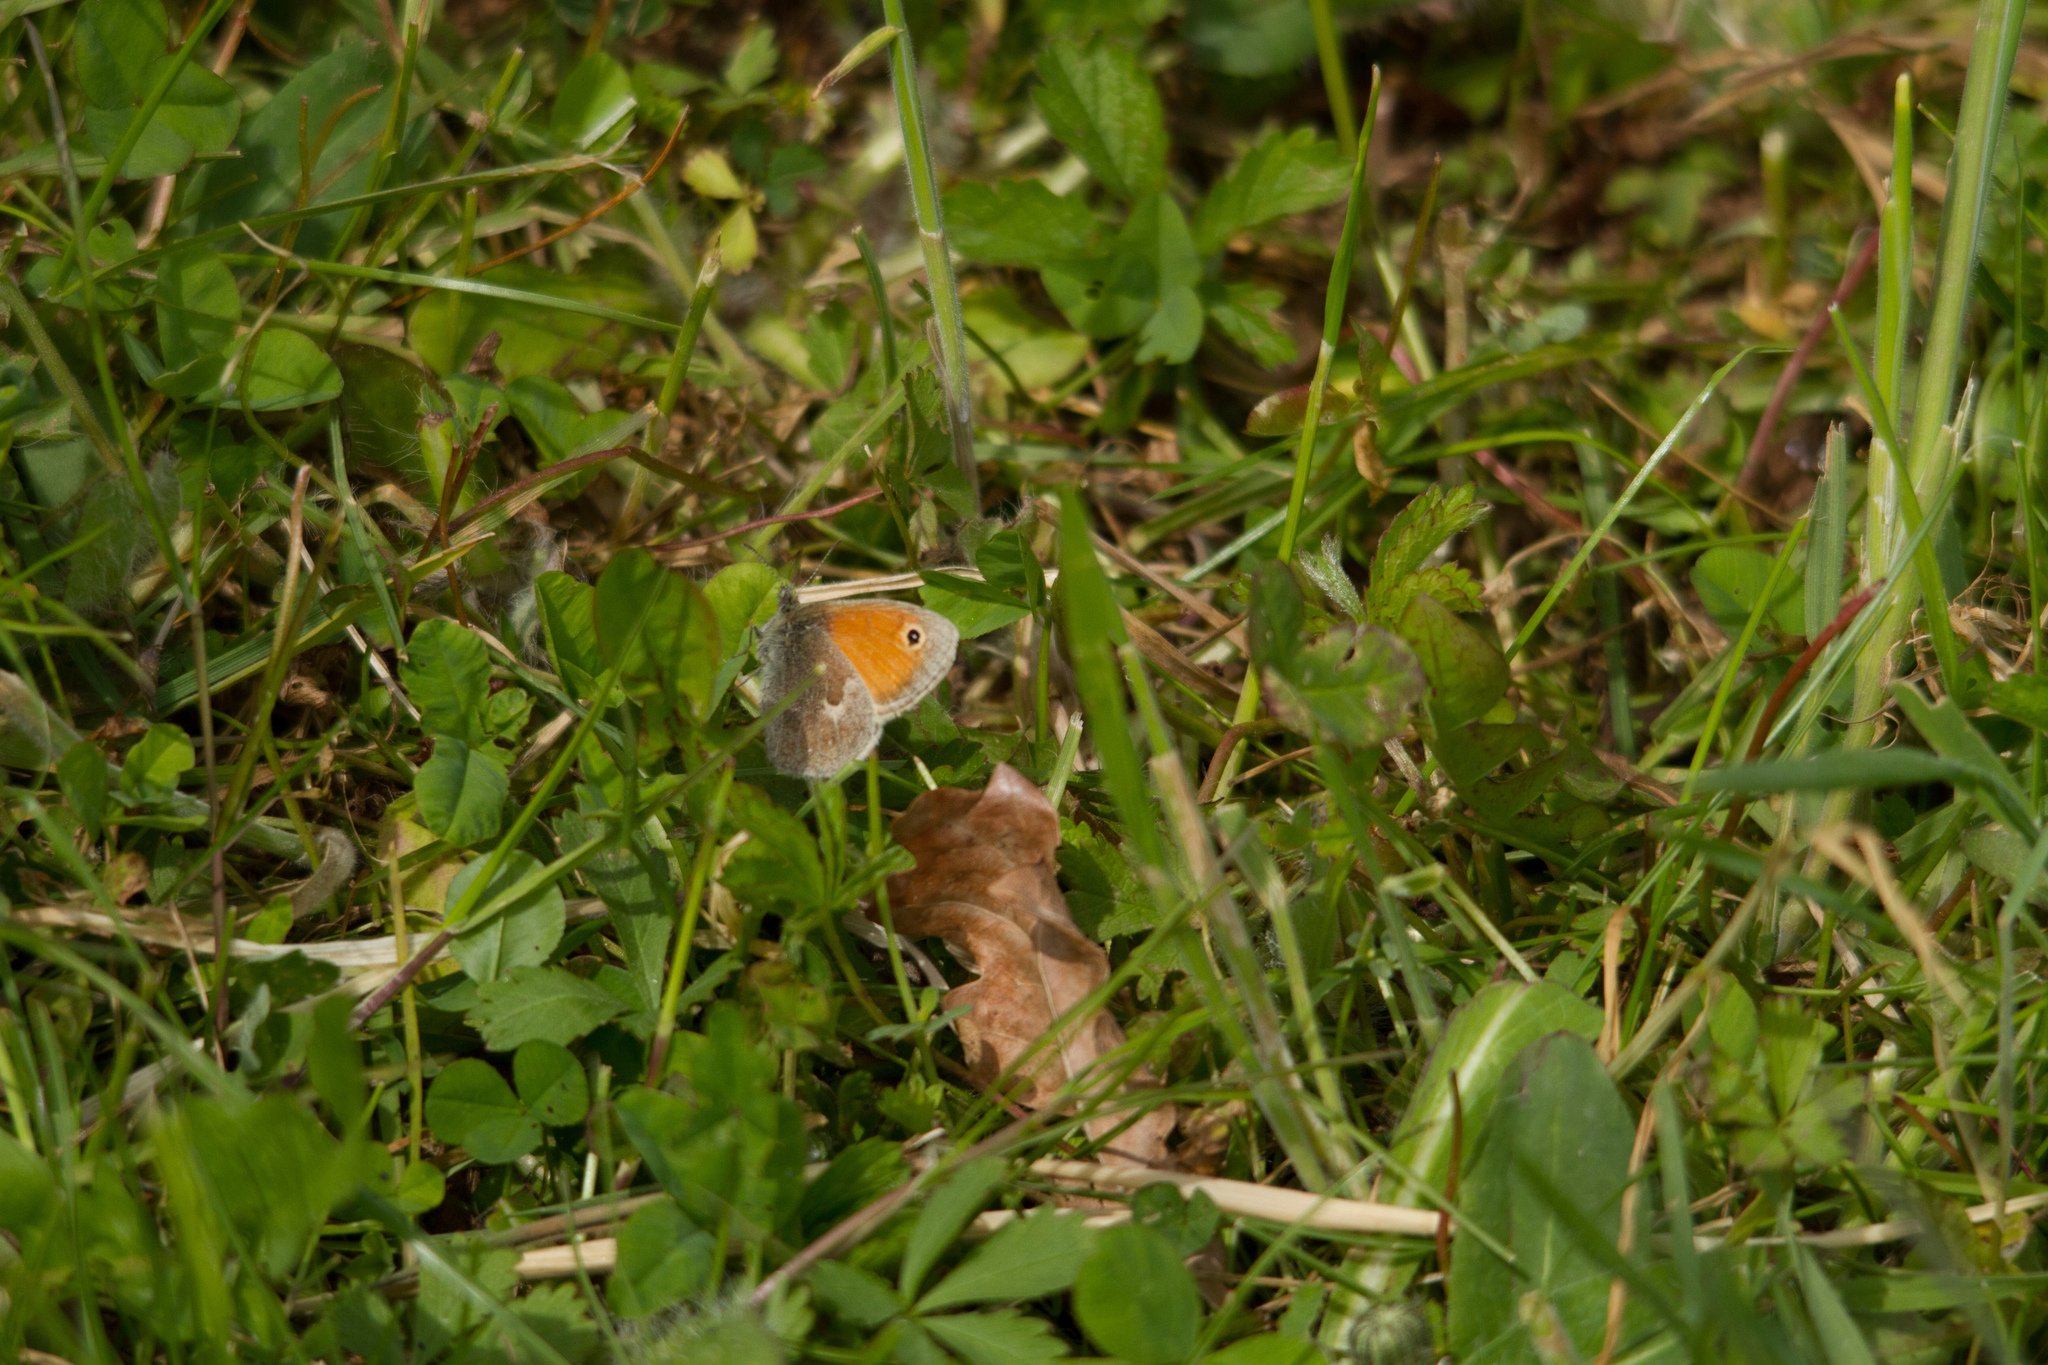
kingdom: Animalia
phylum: Arthropoda
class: Insecta
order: Lepidoptera
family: Nymphalidae
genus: Coenonympha
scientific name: Coenonympha pamphilus
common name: Small heath
